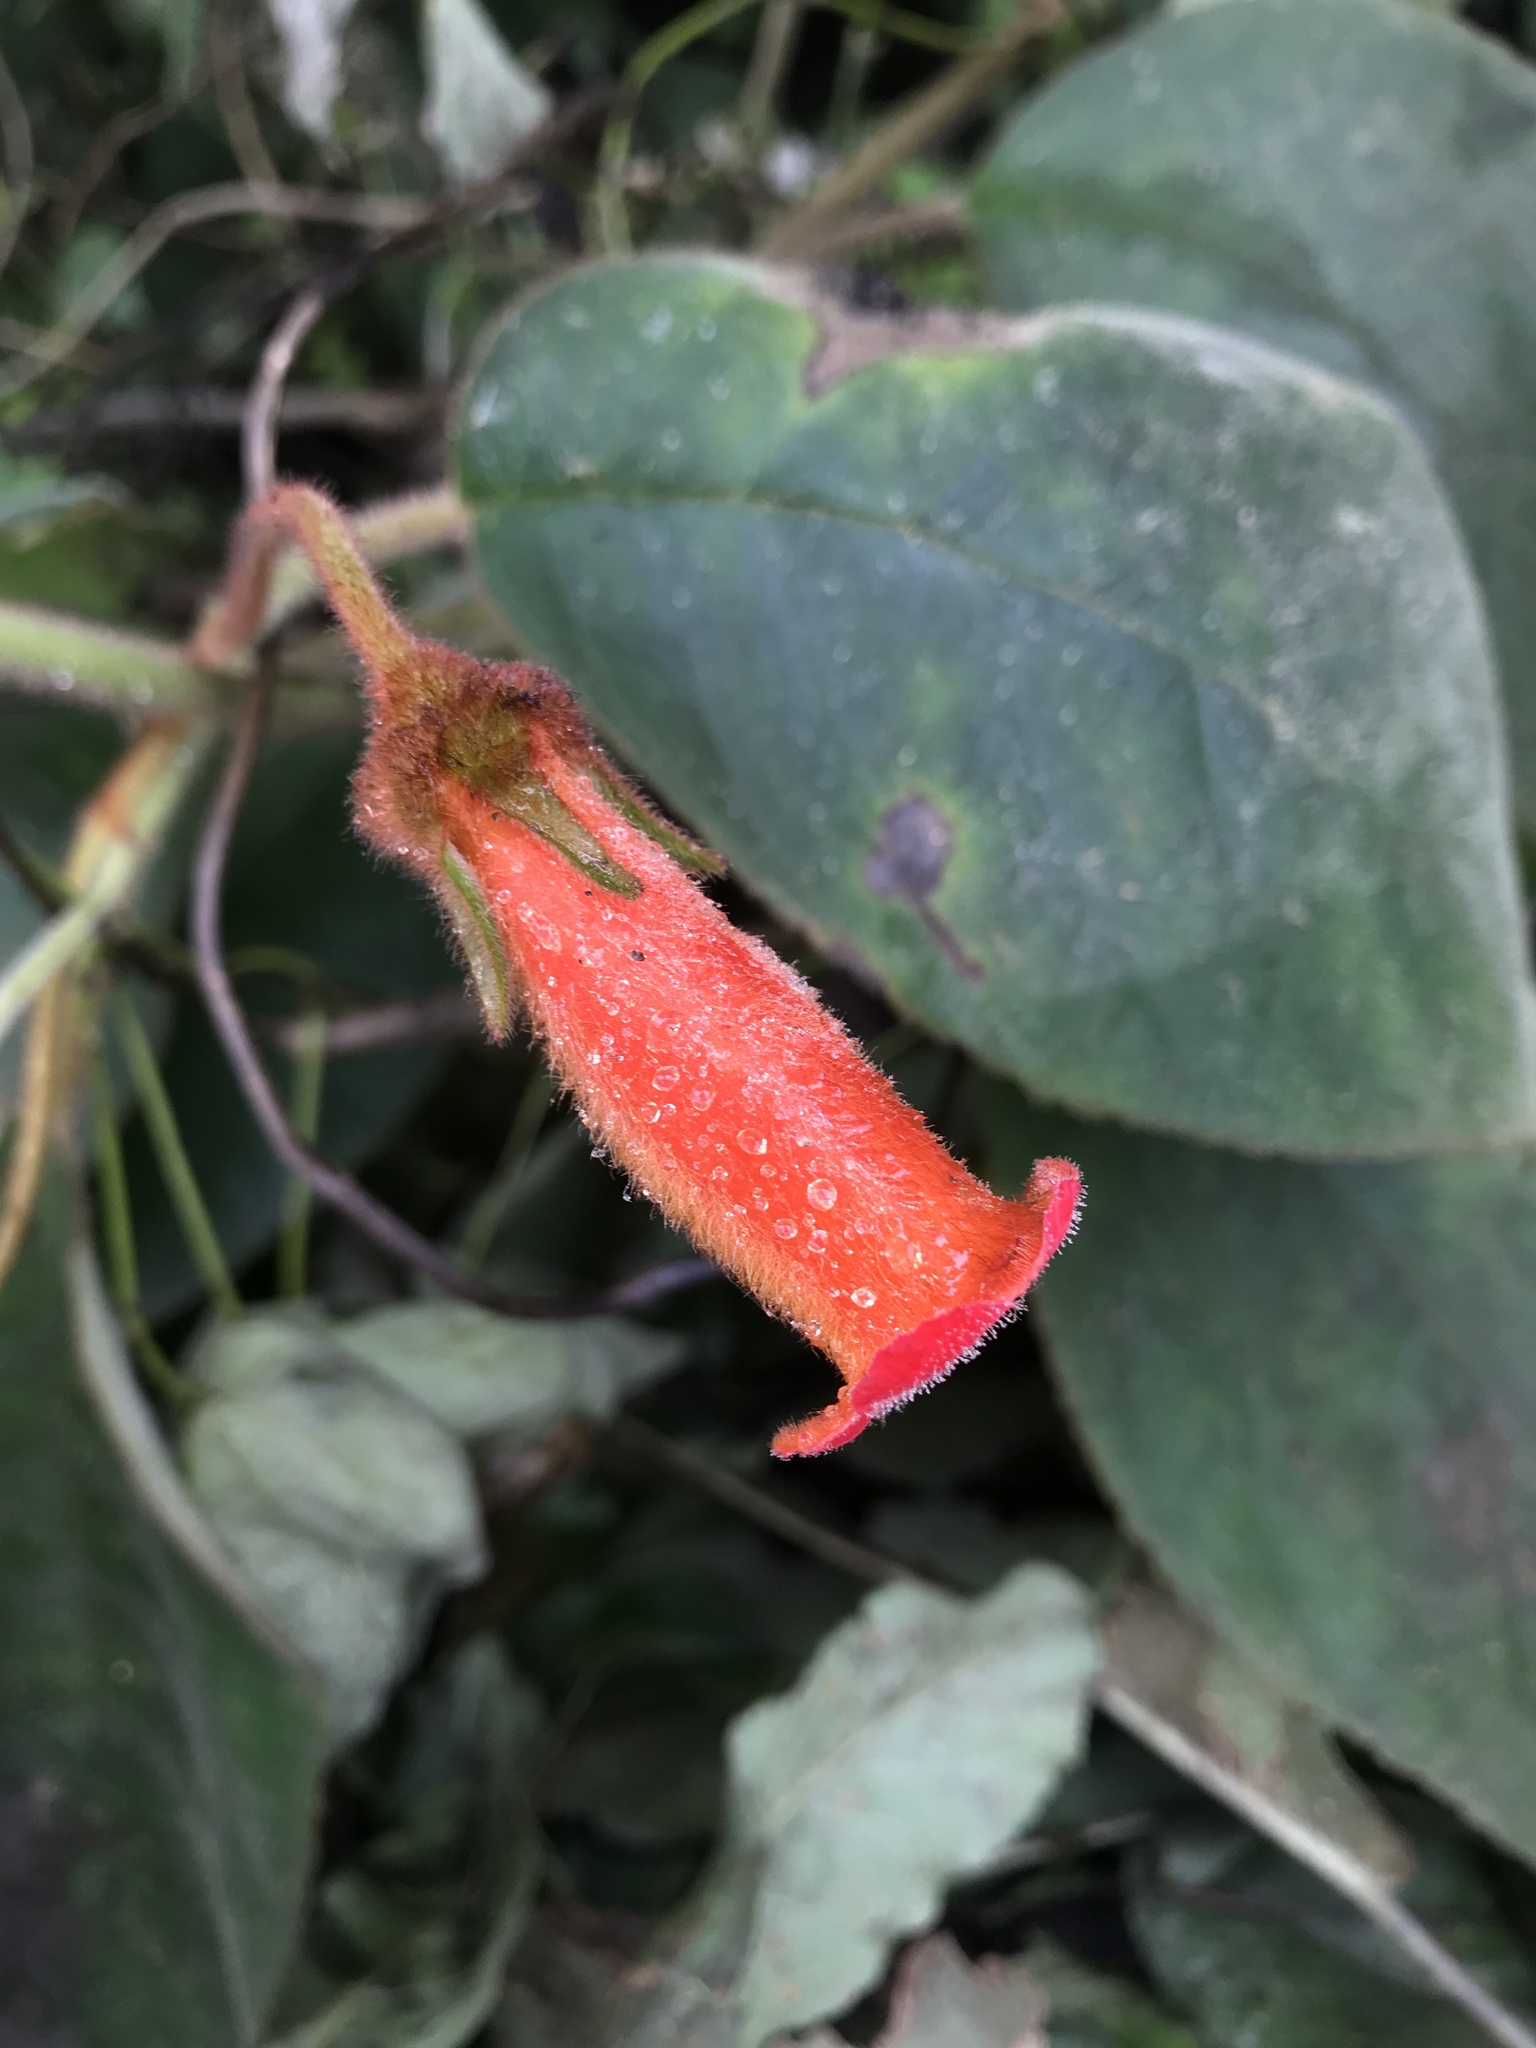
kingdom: Plantae
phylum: Tracheophyta
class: Magnoliopsida
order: Lamiales
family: Gesneriaceae
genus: Kohleria
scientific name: Kohleria hirsuta
